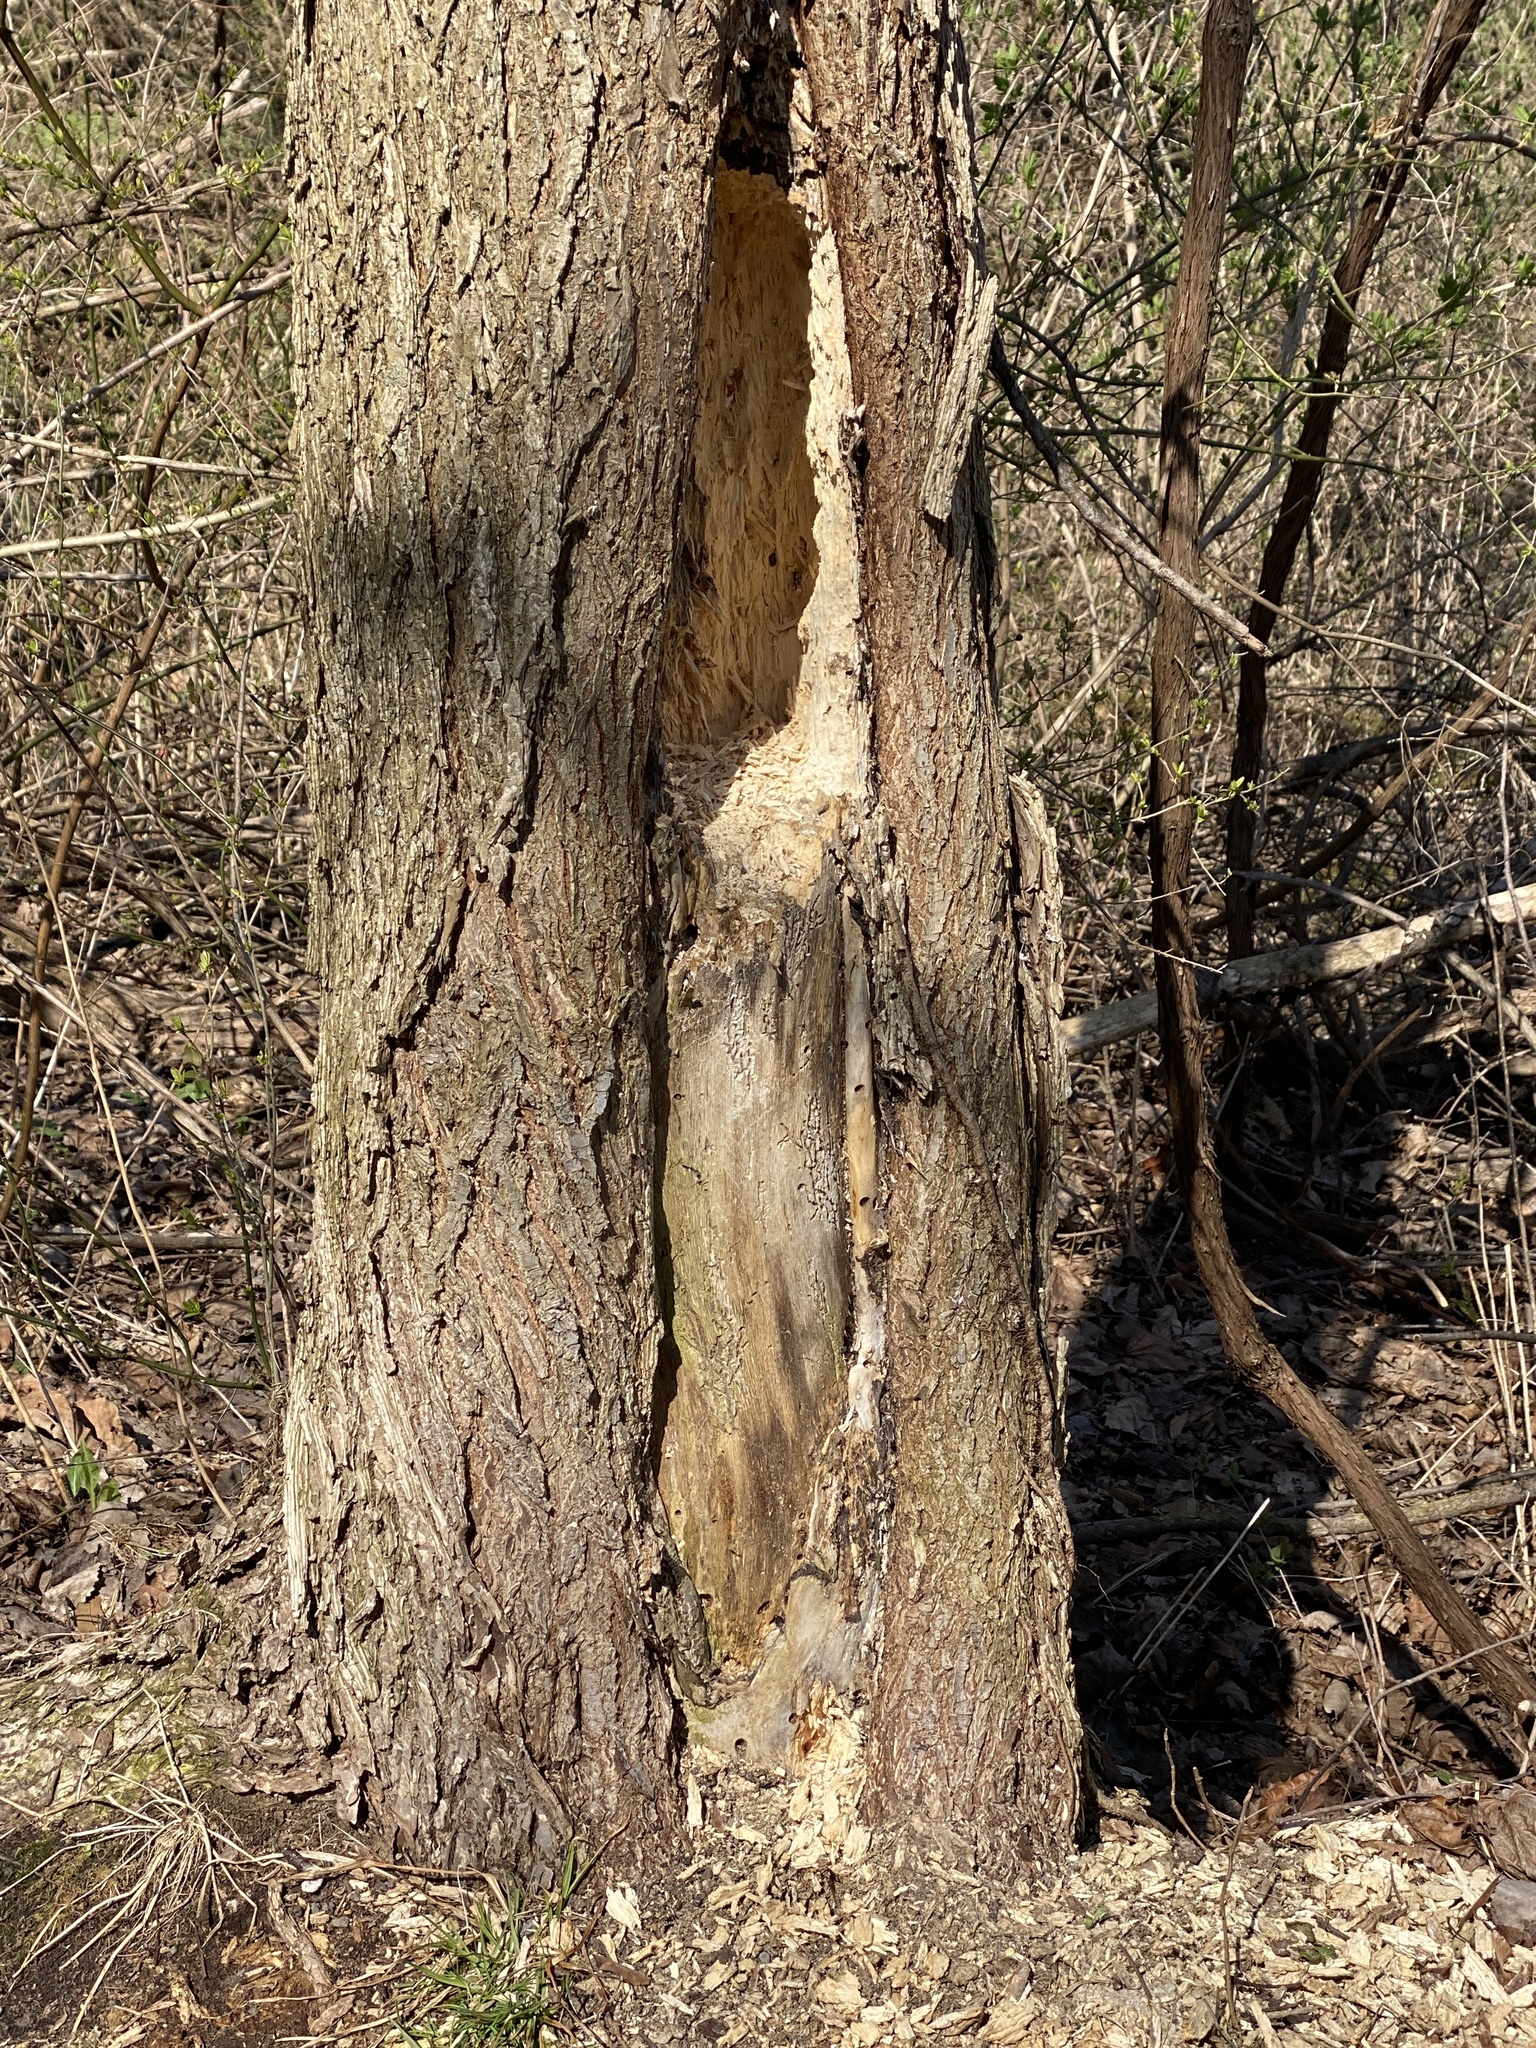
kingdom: Animalia
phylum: Chordata
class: Aves
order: Piciformes
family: Picidae
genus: Dryocopus
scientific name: Dryocopus pileatus
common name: Pileated woodpecker
